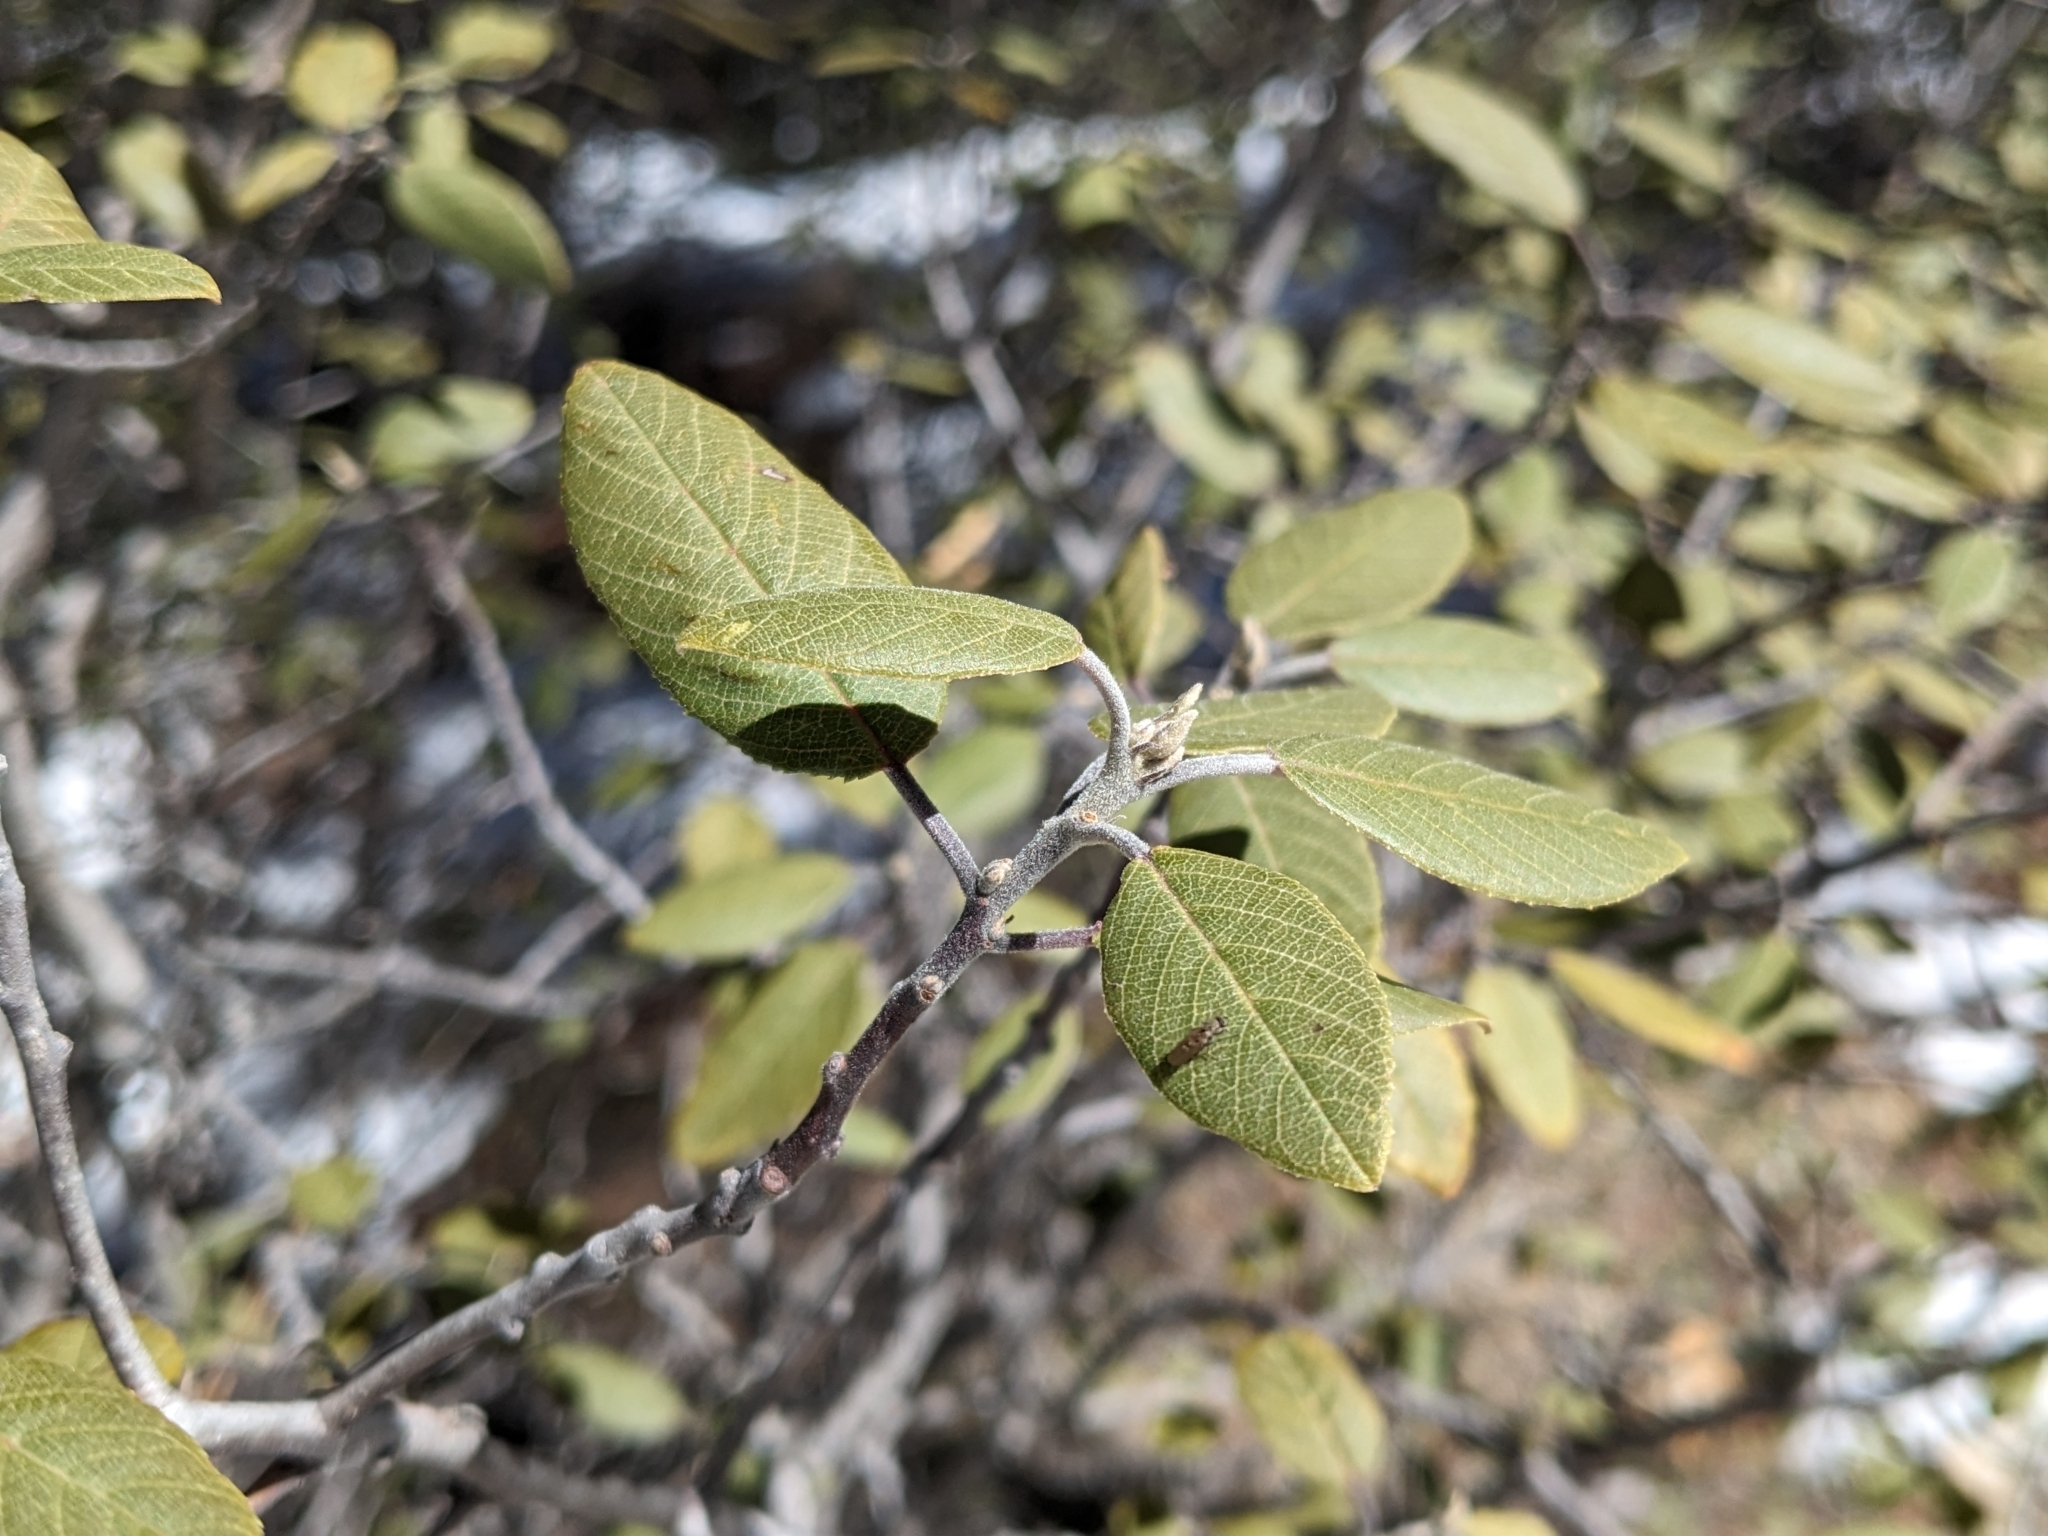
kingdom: Plantae
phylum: Tracheophyta
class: Magnoliopsida
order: Rosales
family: Rhamnaceae
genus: Frangula
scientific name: Frangula californica
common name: California buckthorn
